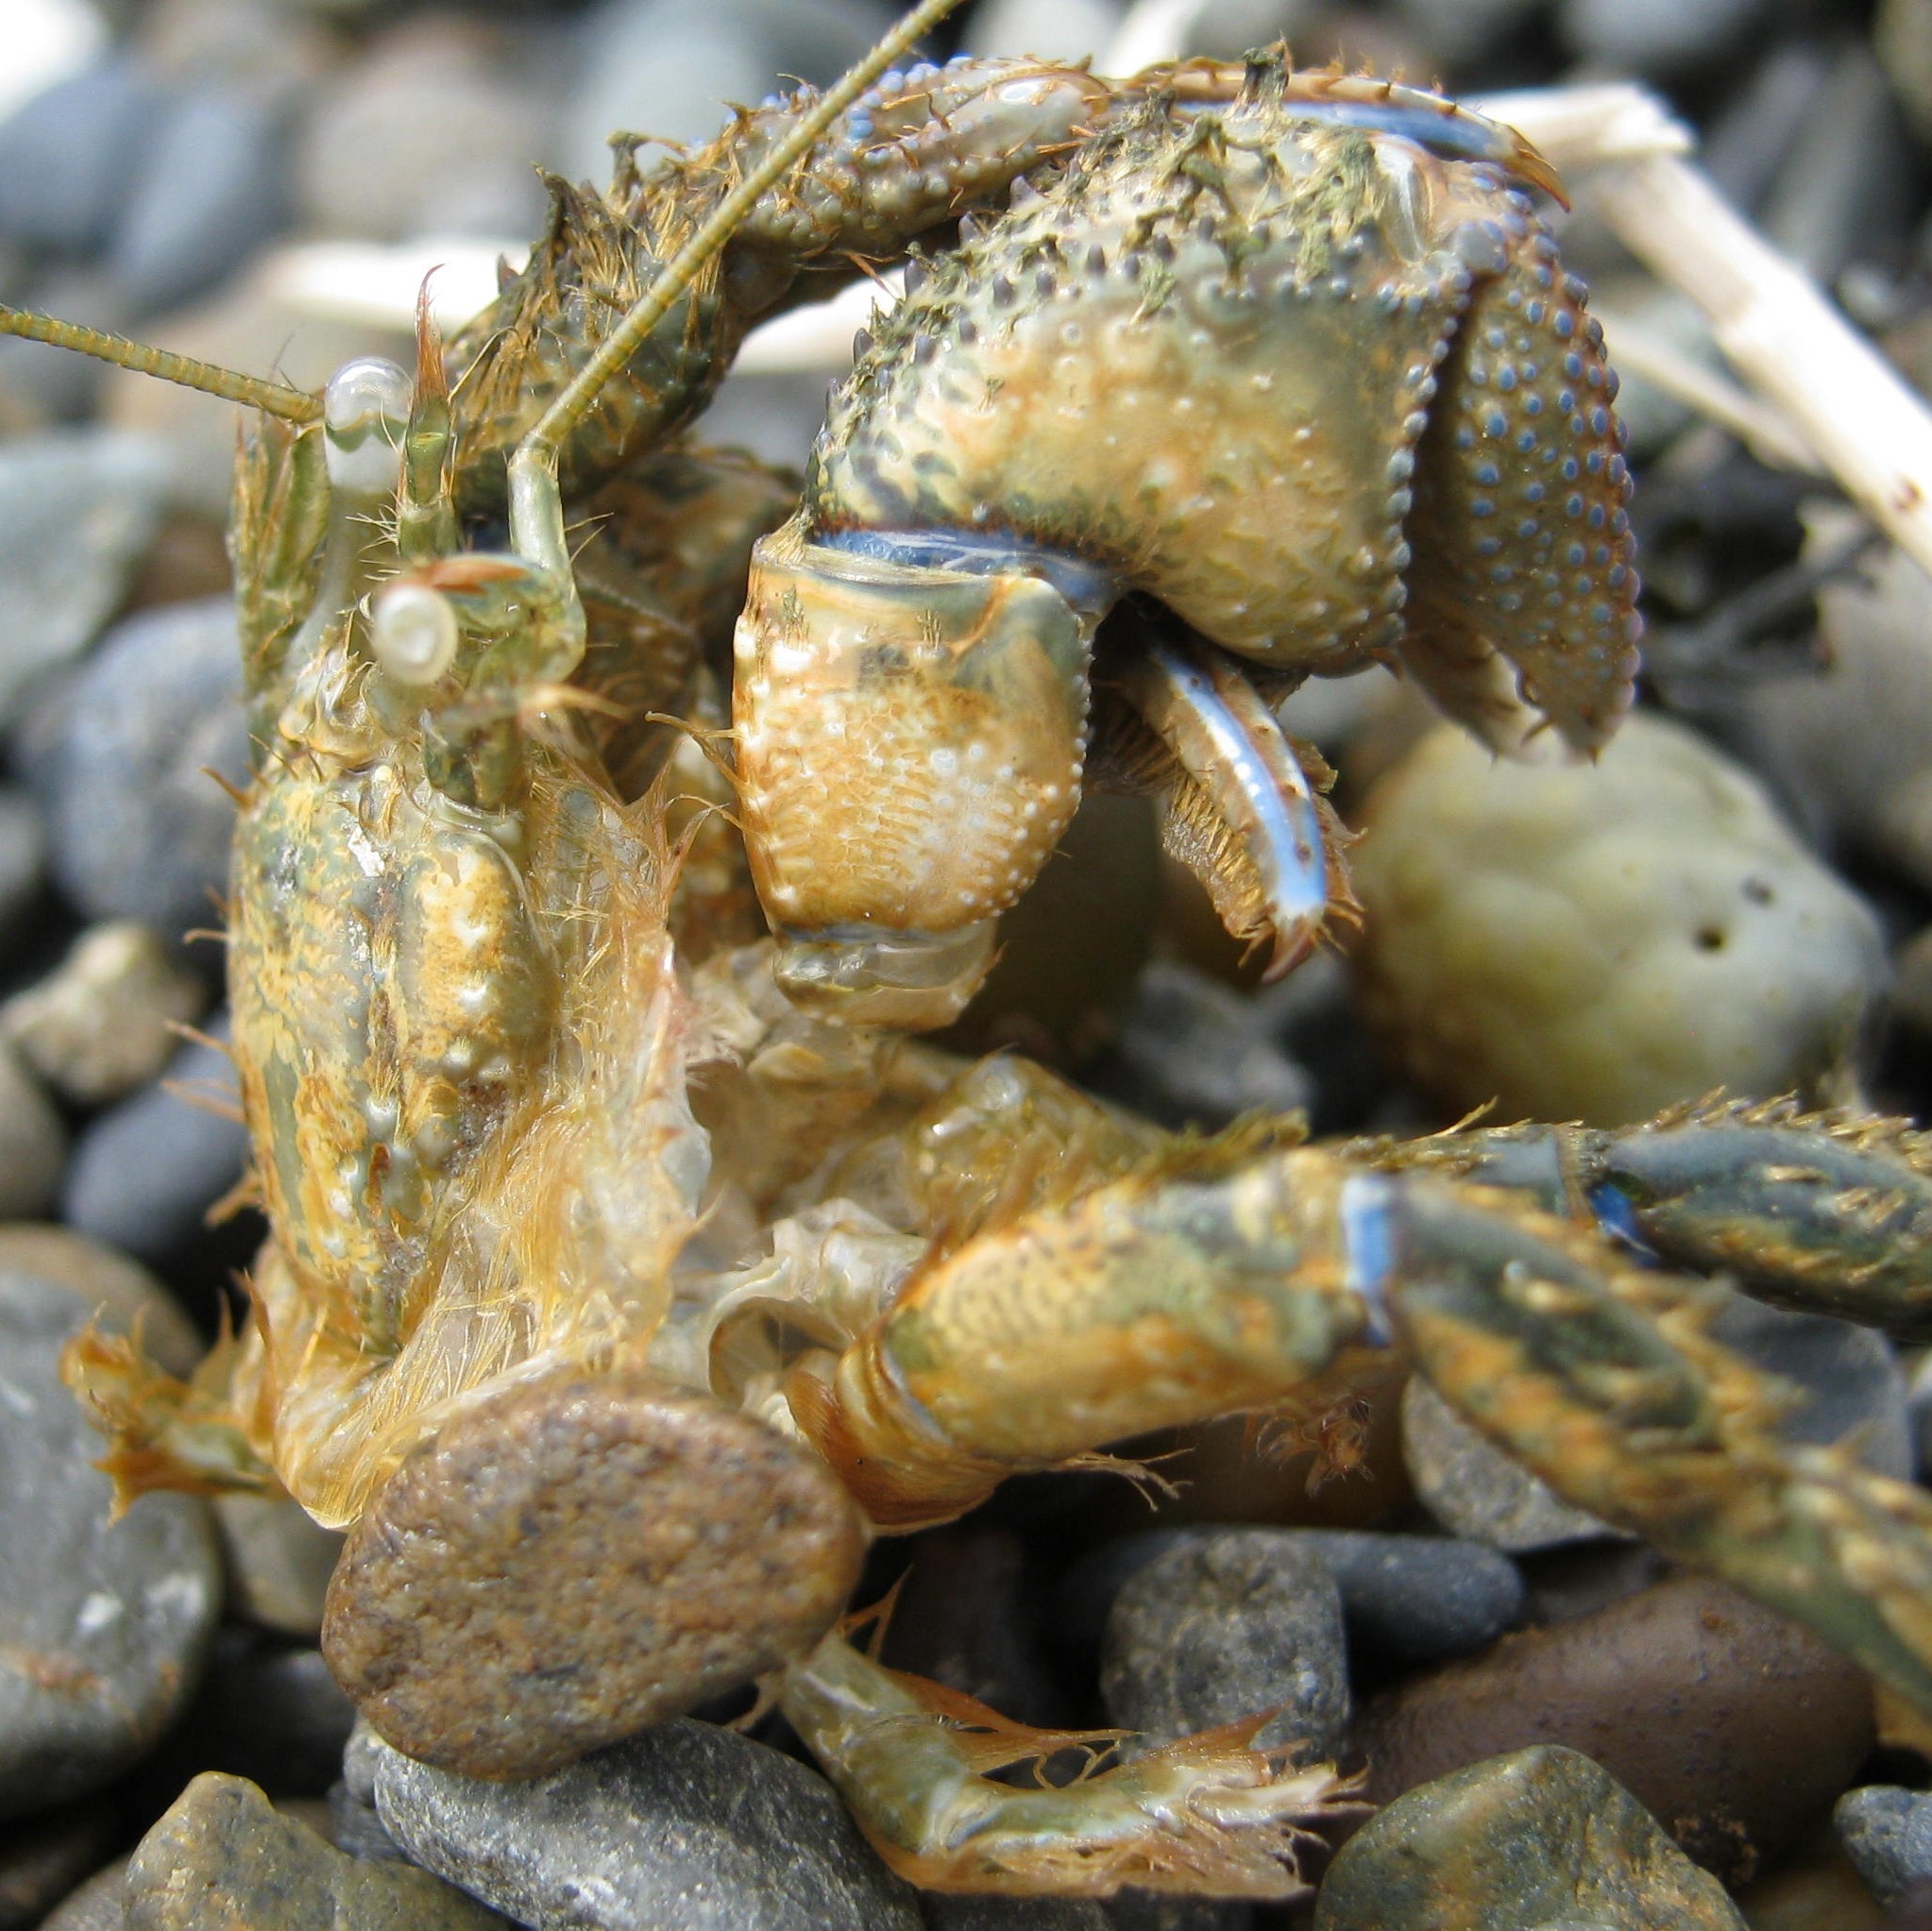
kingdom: Animalia
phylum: Arthropoda
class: Malacostraca
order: Decapoda
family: Paguridae
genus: Pagurus
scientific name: Pagurus novizealandiae
